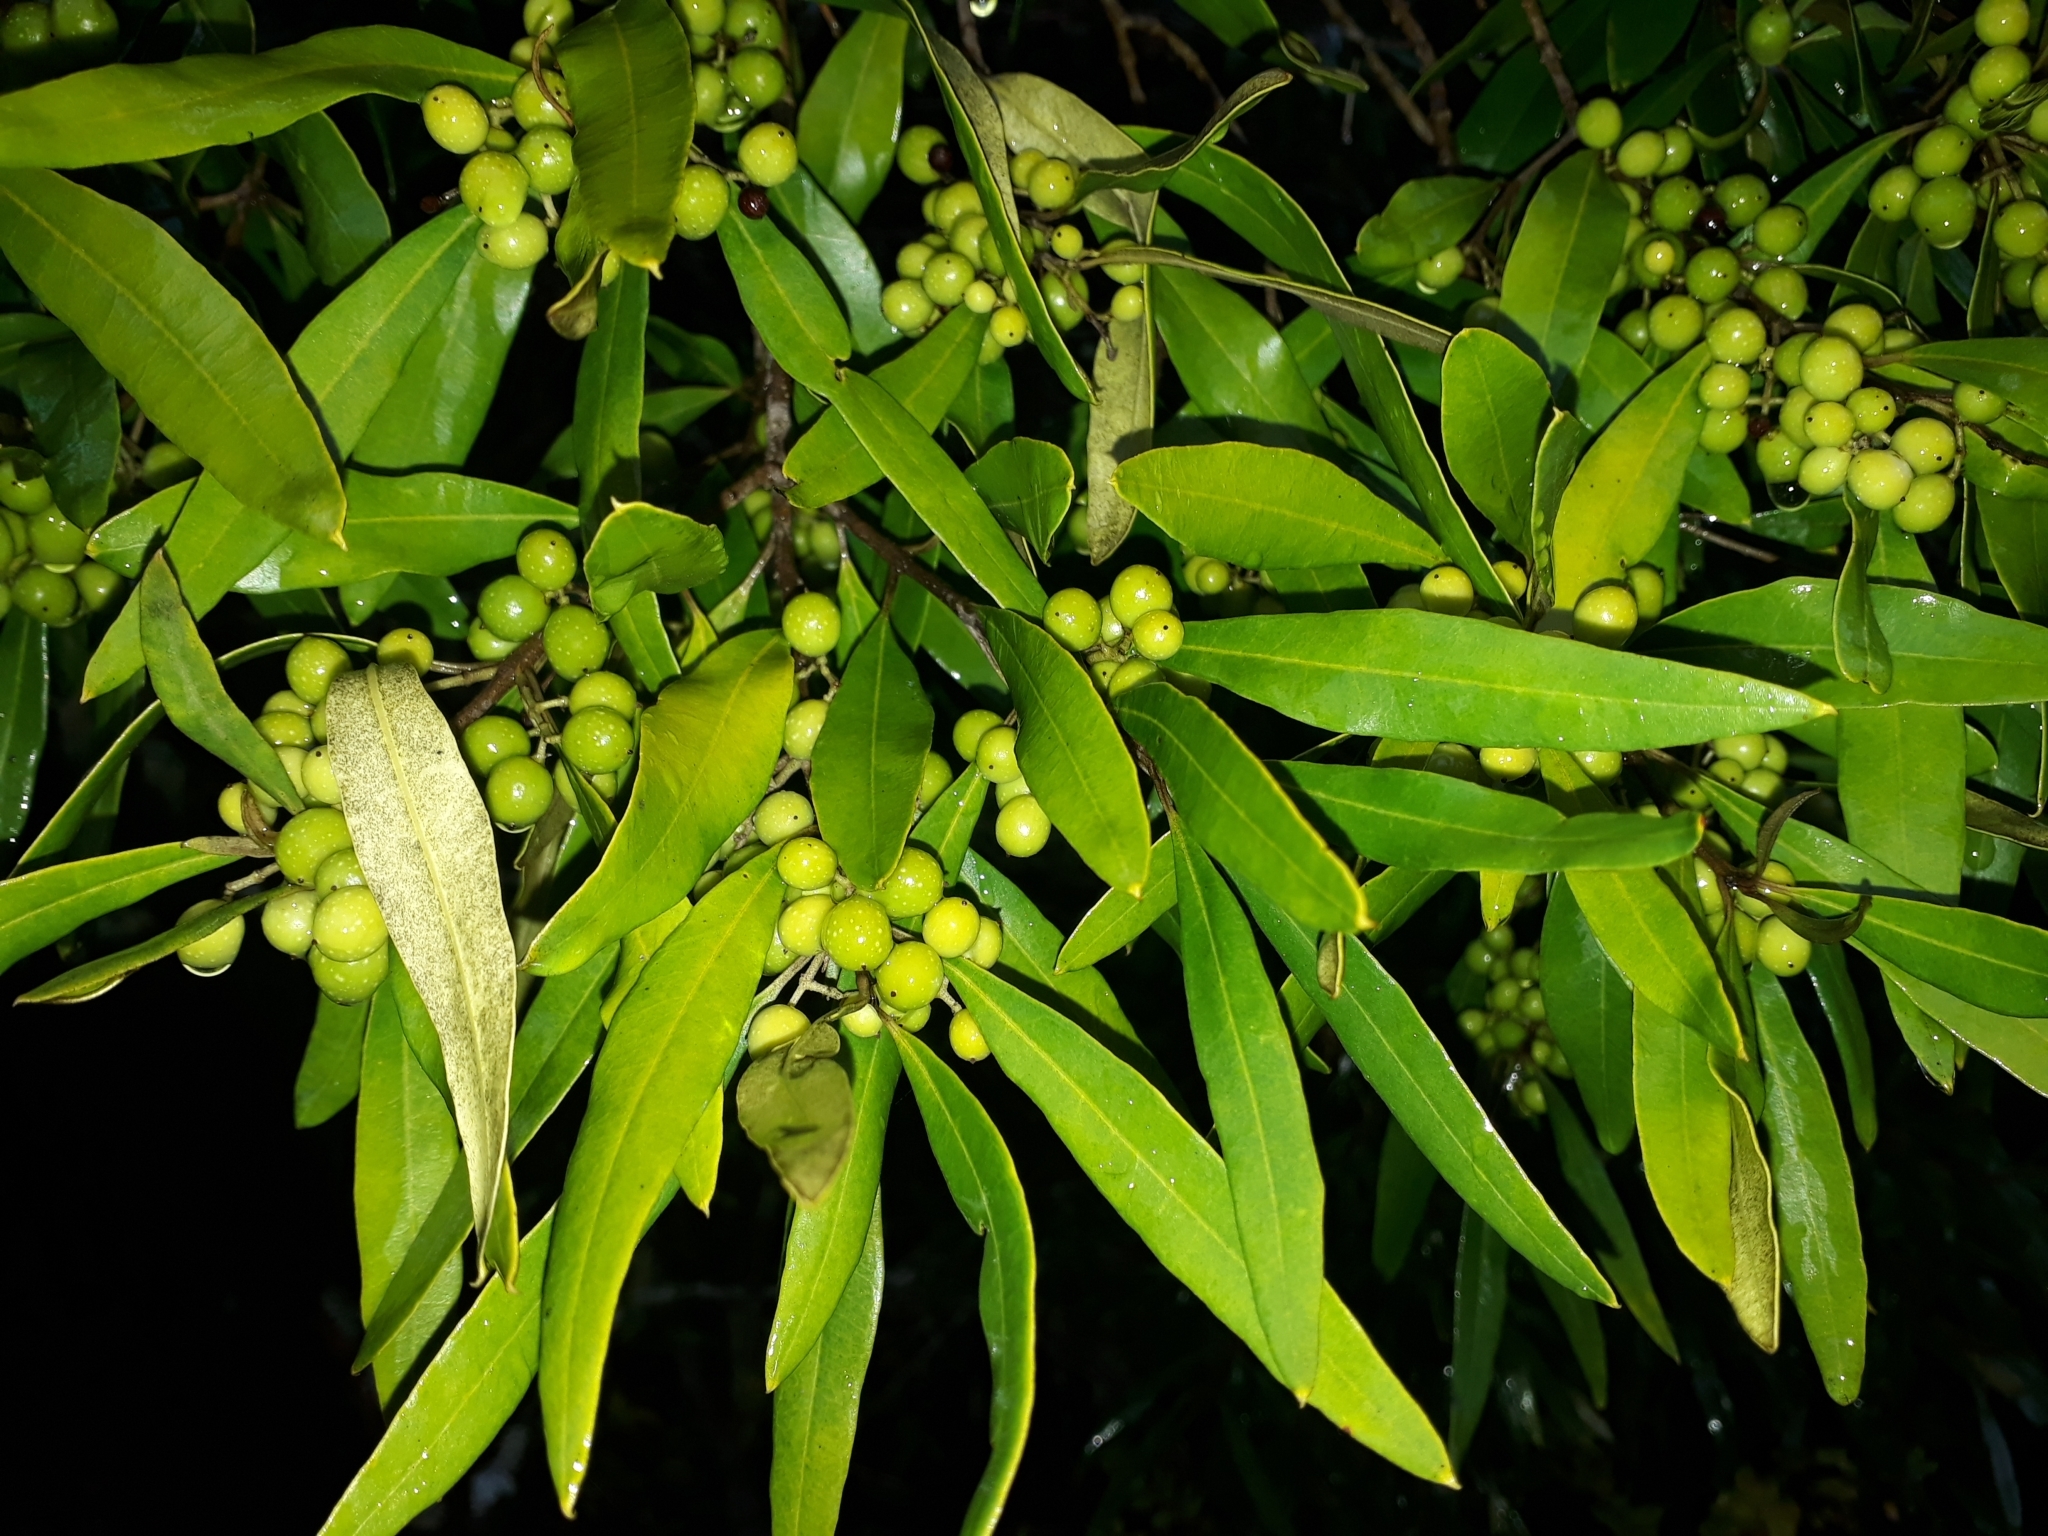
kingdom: Plantae
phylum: Tracheophyta
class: Magnoliopsida
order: Lamiales
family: Oleaceae
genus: Olea
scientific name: Olea europaea
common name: Olive
